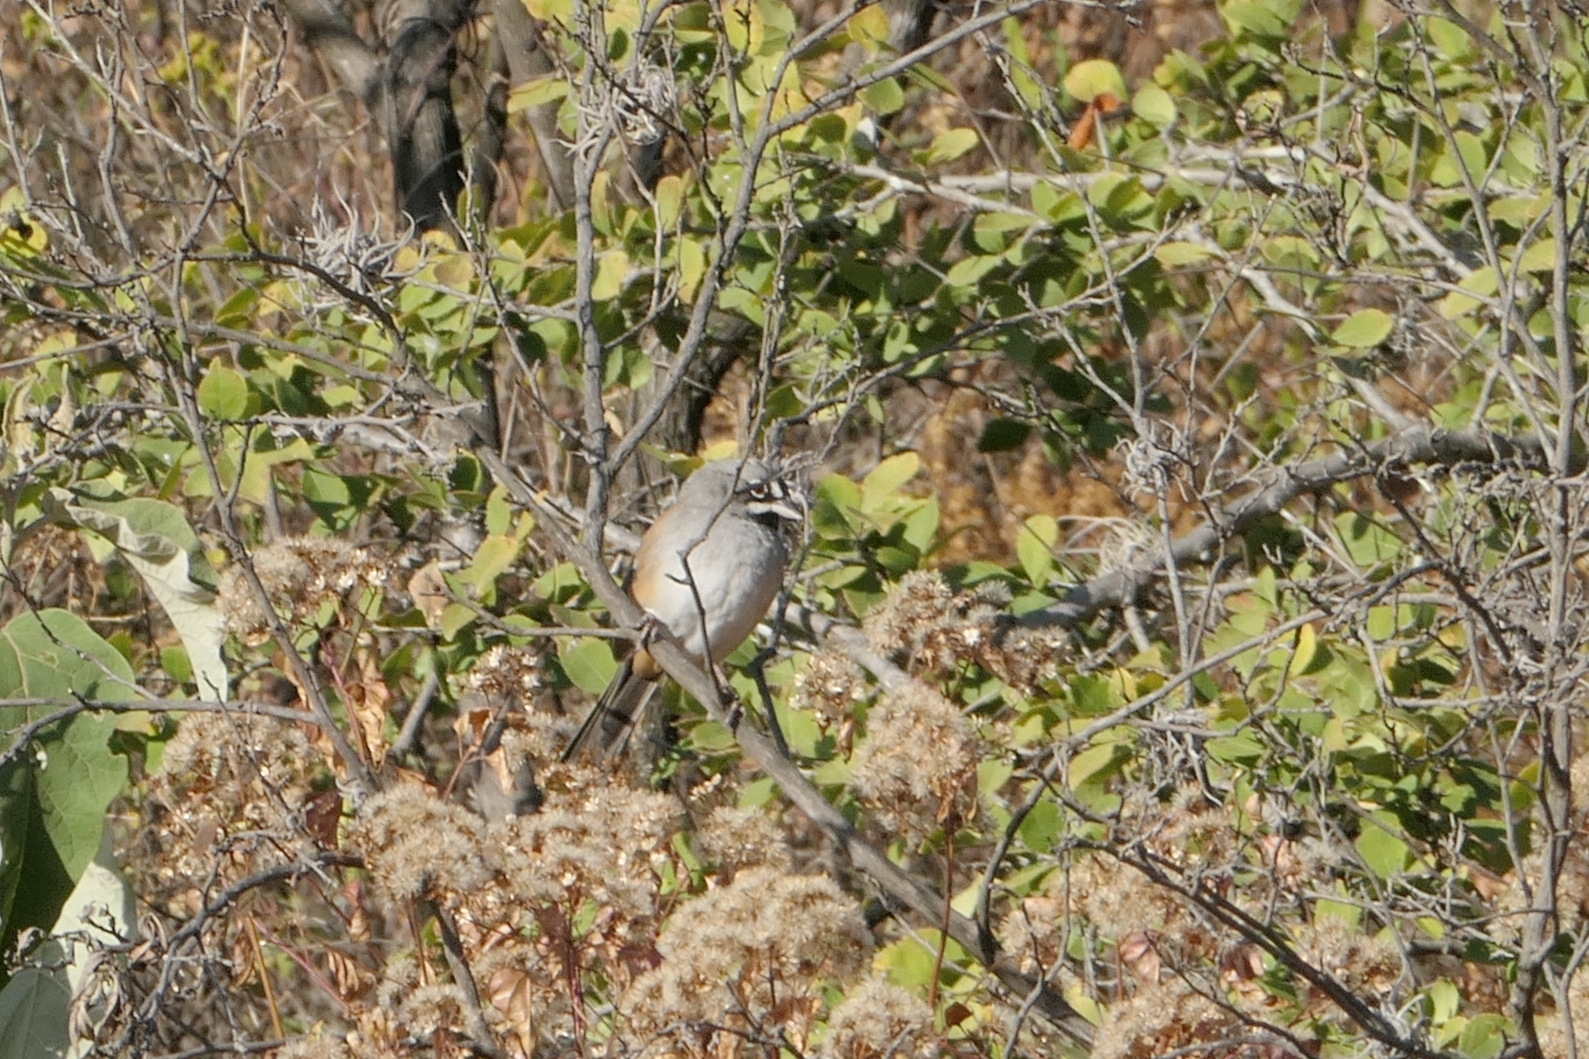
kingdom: Animalia
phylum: Chordata
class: Aves
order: Passeriformes
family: Passerellidae
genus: Peucaea
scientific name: Peucaea mystacalis
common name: Bridled sparrow
